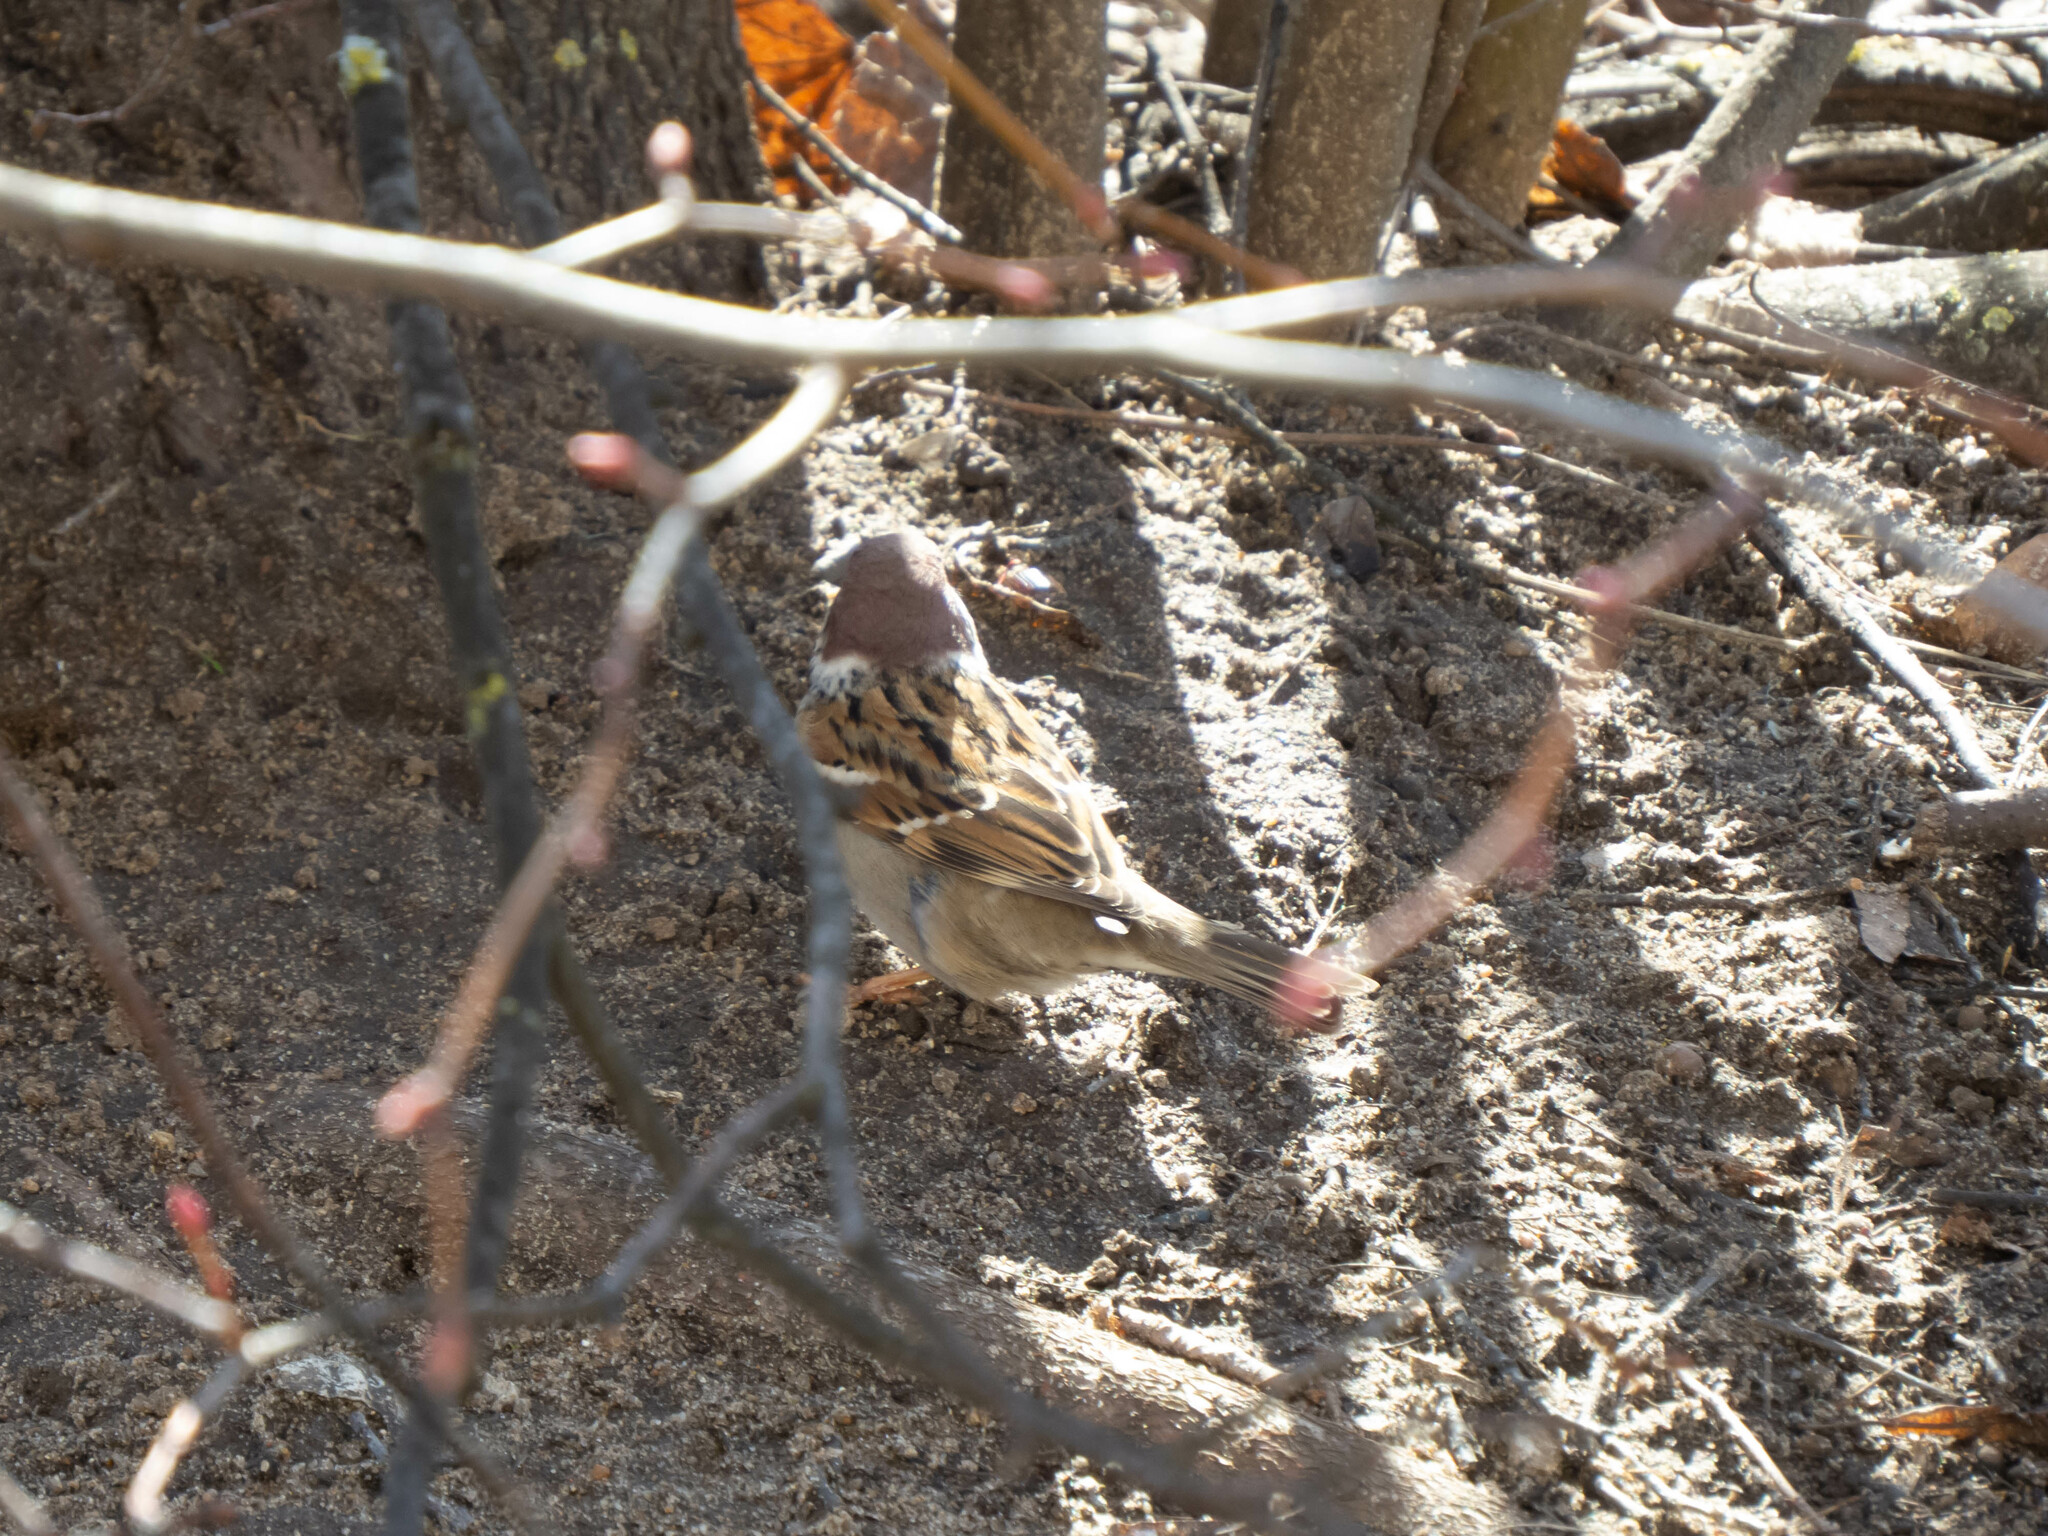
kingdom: Animalia
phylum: Chordata
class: Aves
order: Passeriformes
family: Passeridae
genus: Passer
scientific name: Passer montanus
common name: Eurasian tree sparrow
